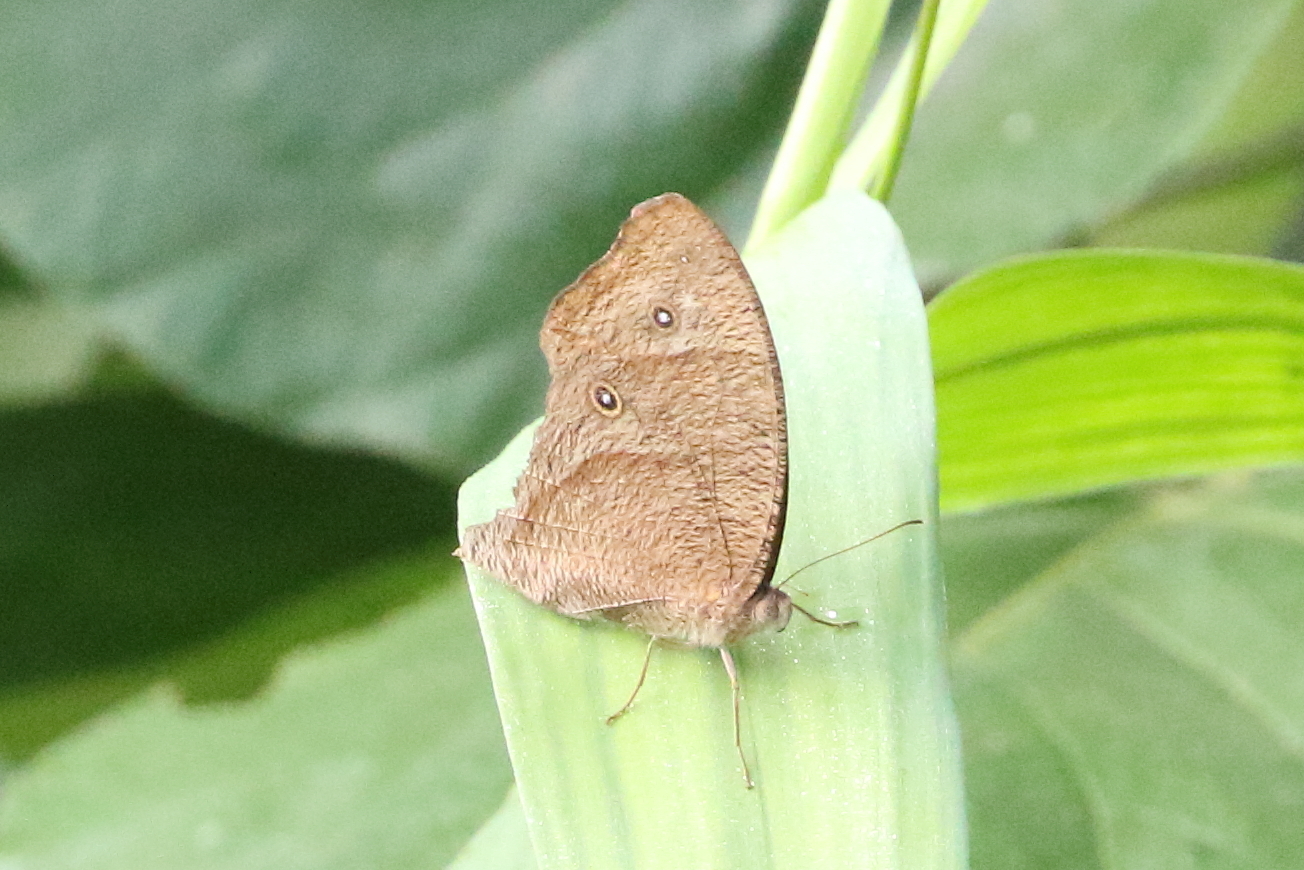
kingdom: Animalia
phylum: Arthropoda
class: Insecta
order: Lepidoptera
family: Nymphalidae
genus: Melanitis
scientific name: Melanitis leda
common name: Twilight brown
